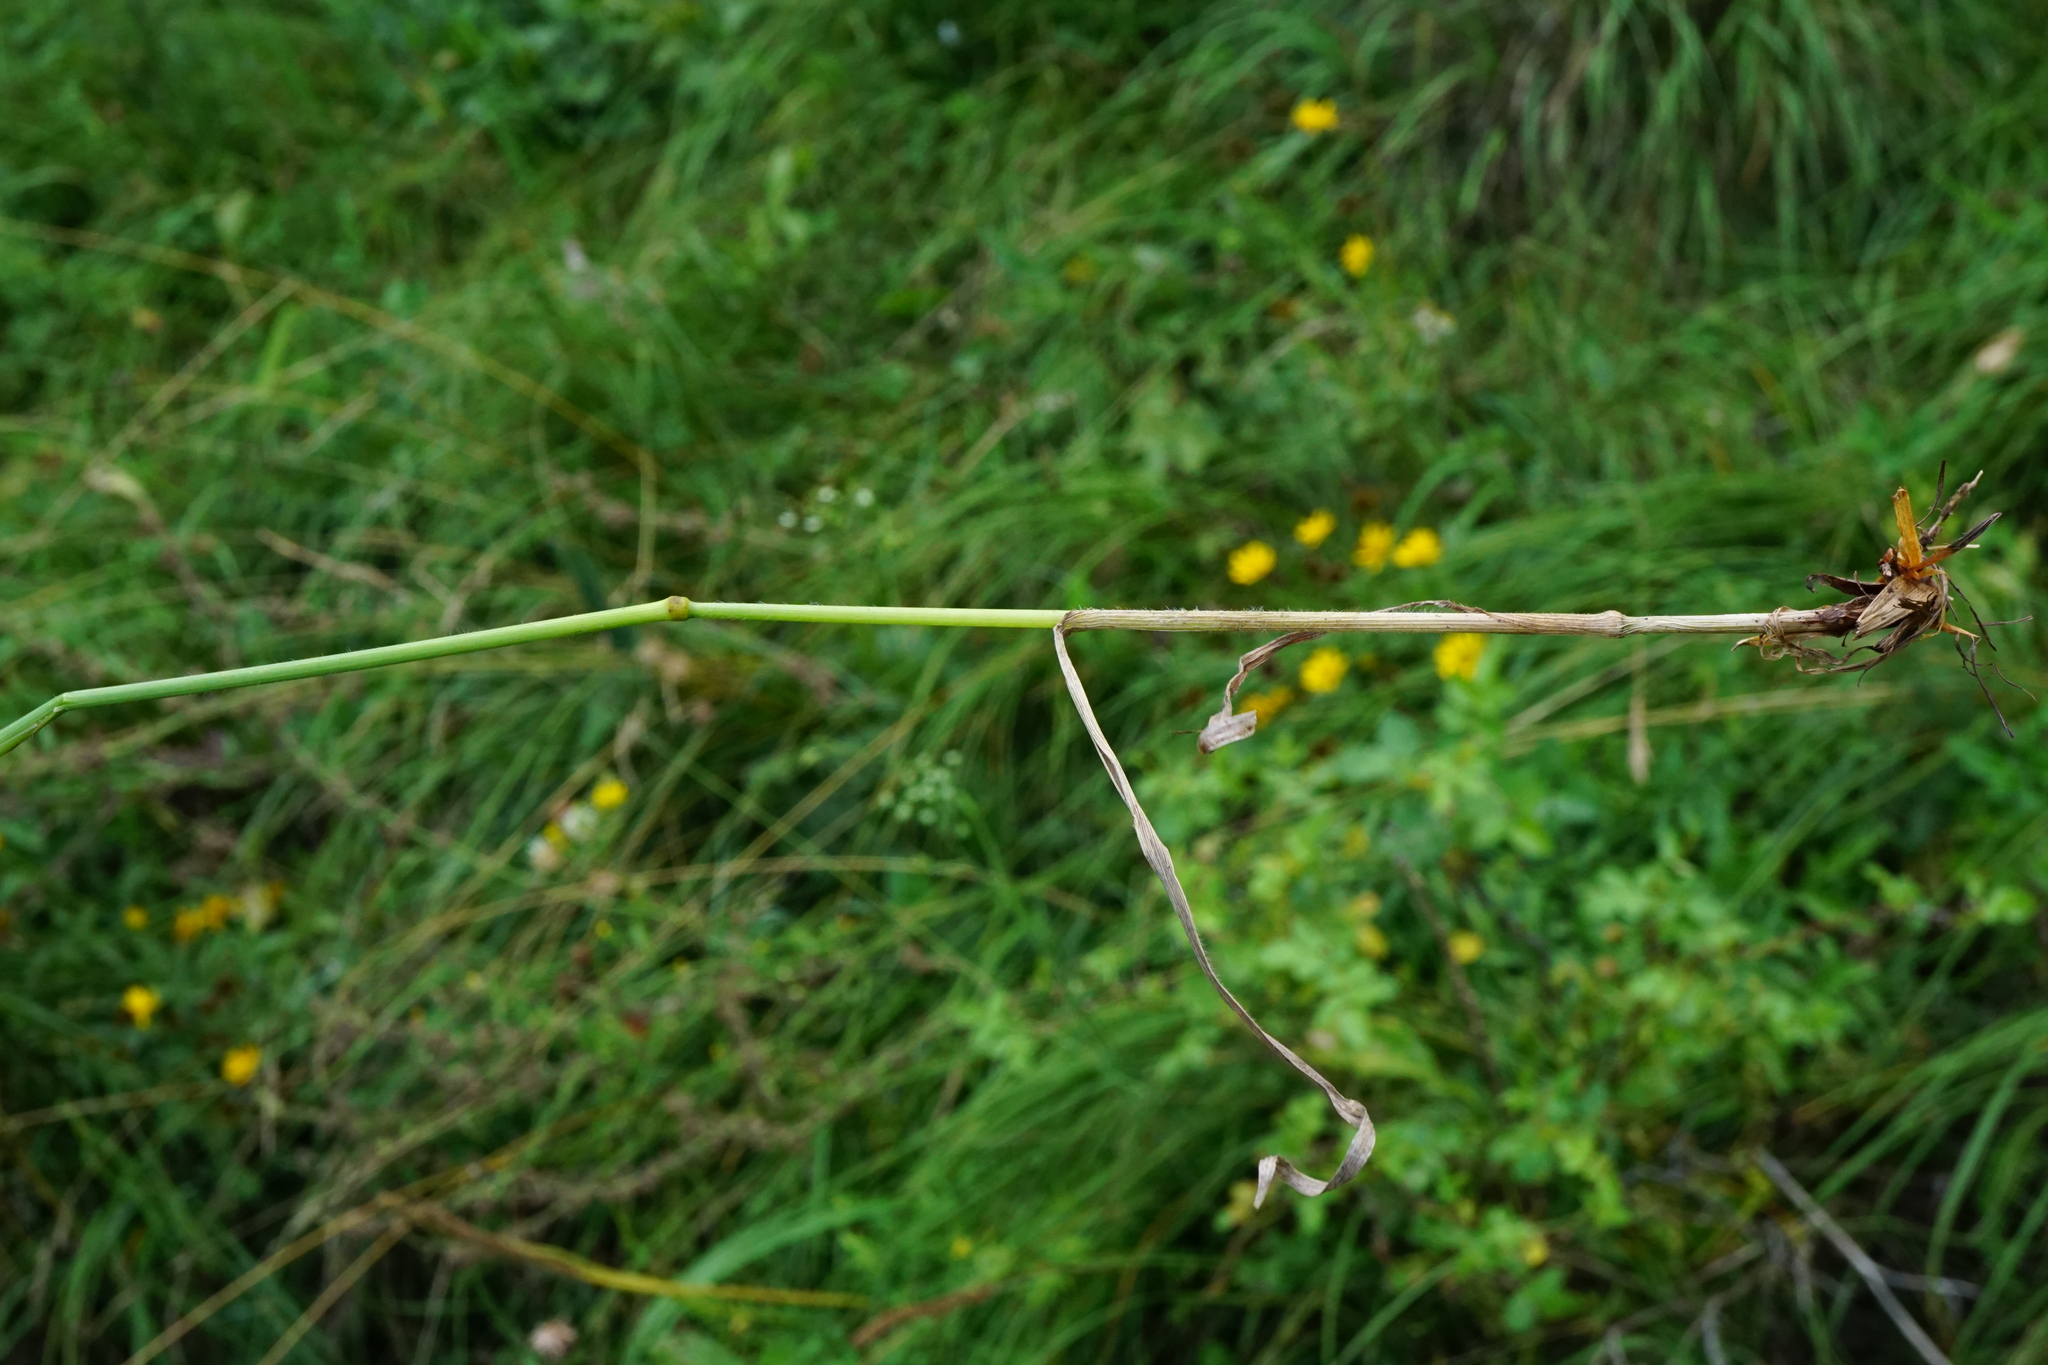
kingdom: Plantae
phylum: Tracheophyta
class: Liliopsida
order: Poales
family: Poaceae
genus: Bromus
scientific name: Bromus erectus
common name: Erect brome
